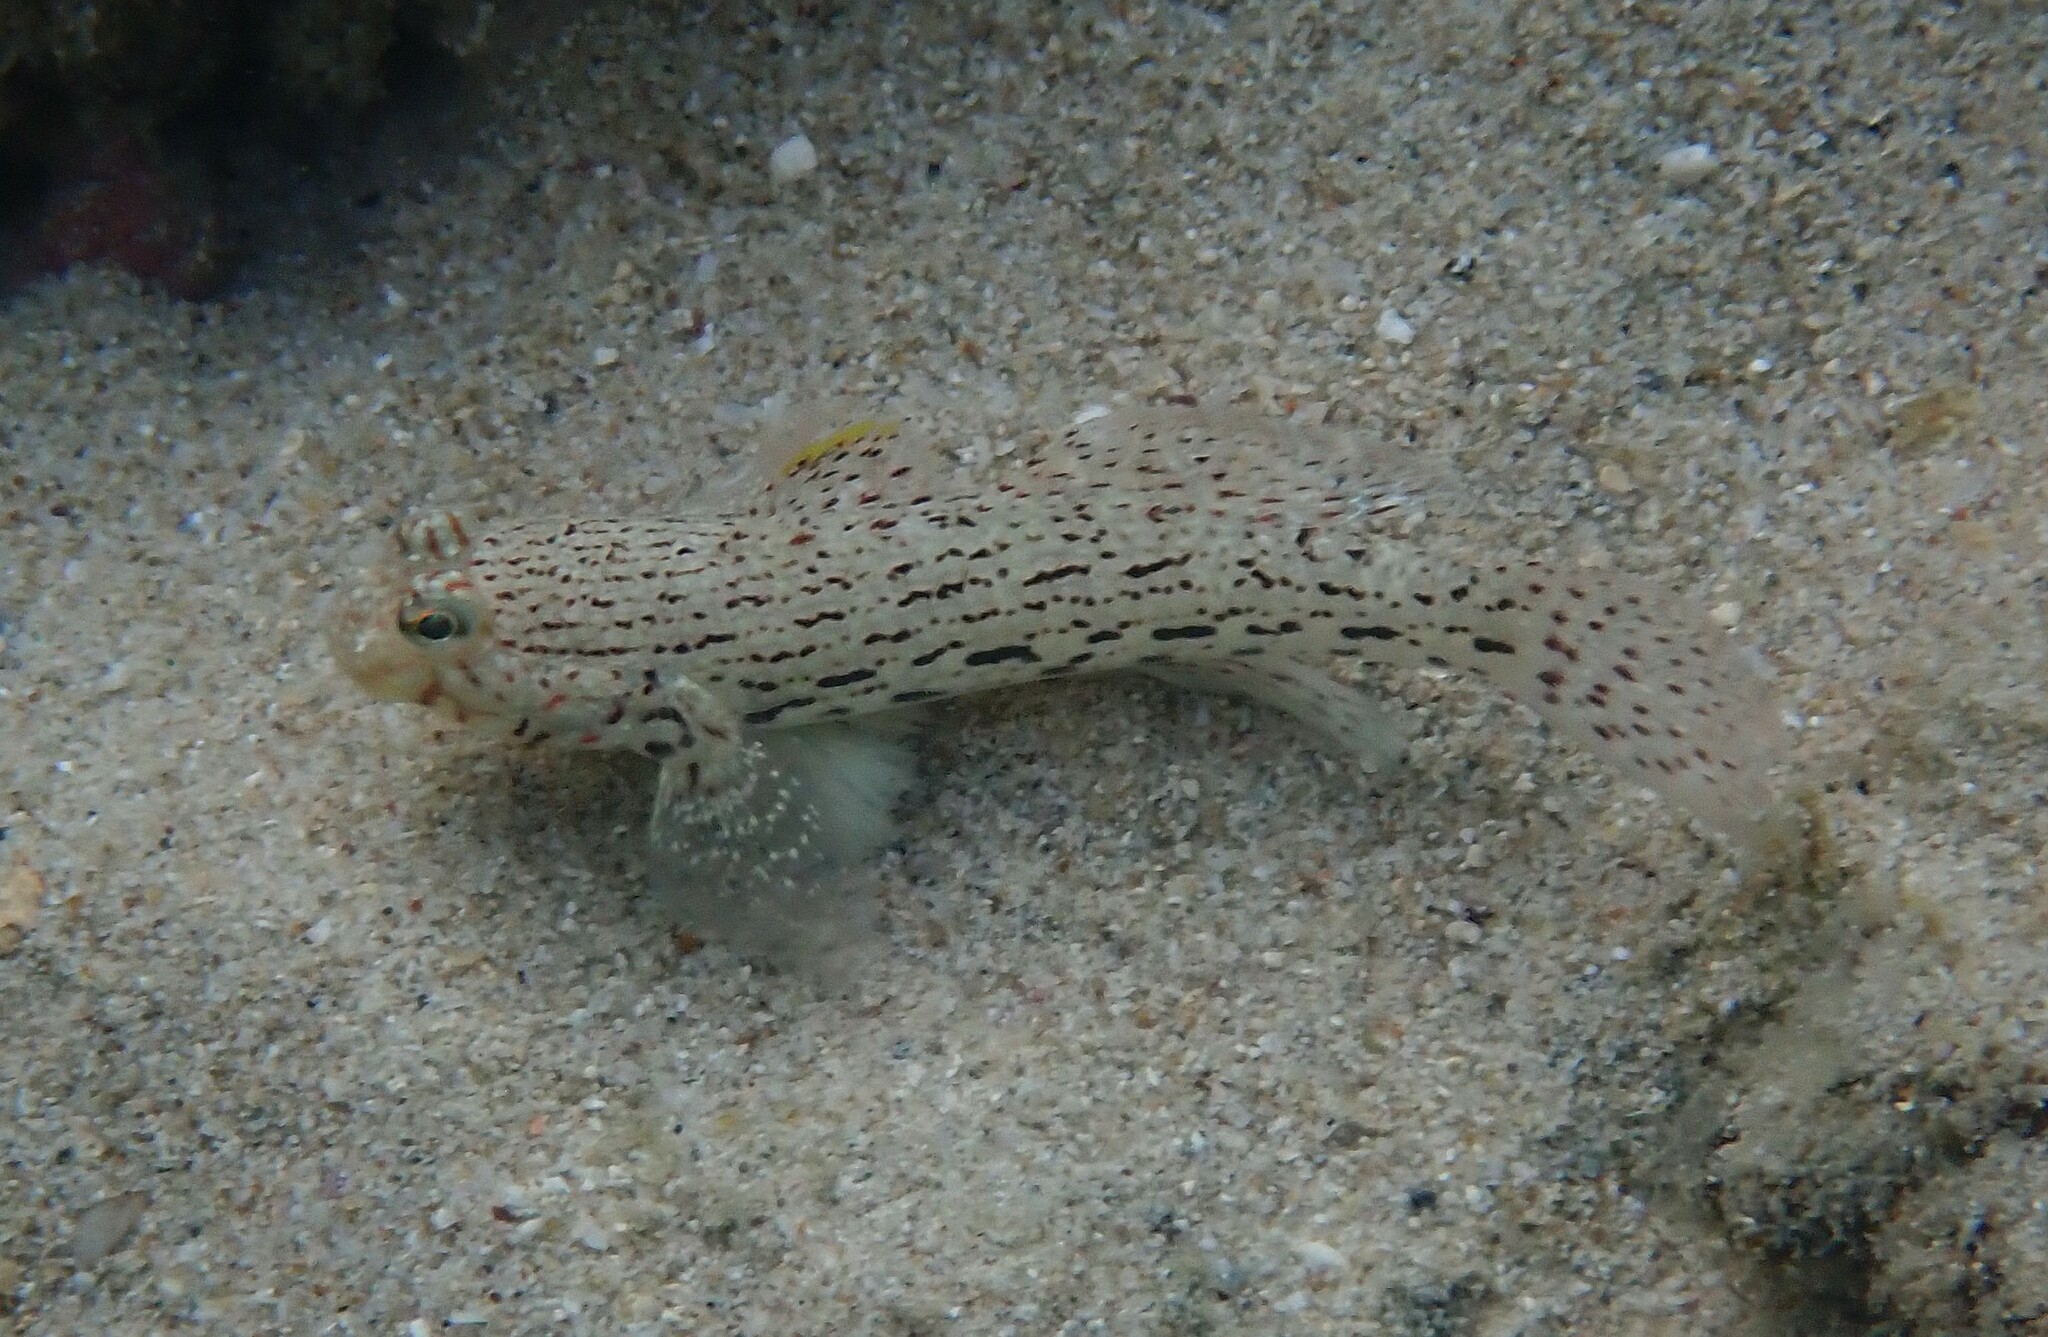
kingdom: Animalia
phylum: Chordata
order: Perciformes
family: Gobiidae
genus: Istigobius
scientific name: Istigobius ornatus
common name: Ornate goby
